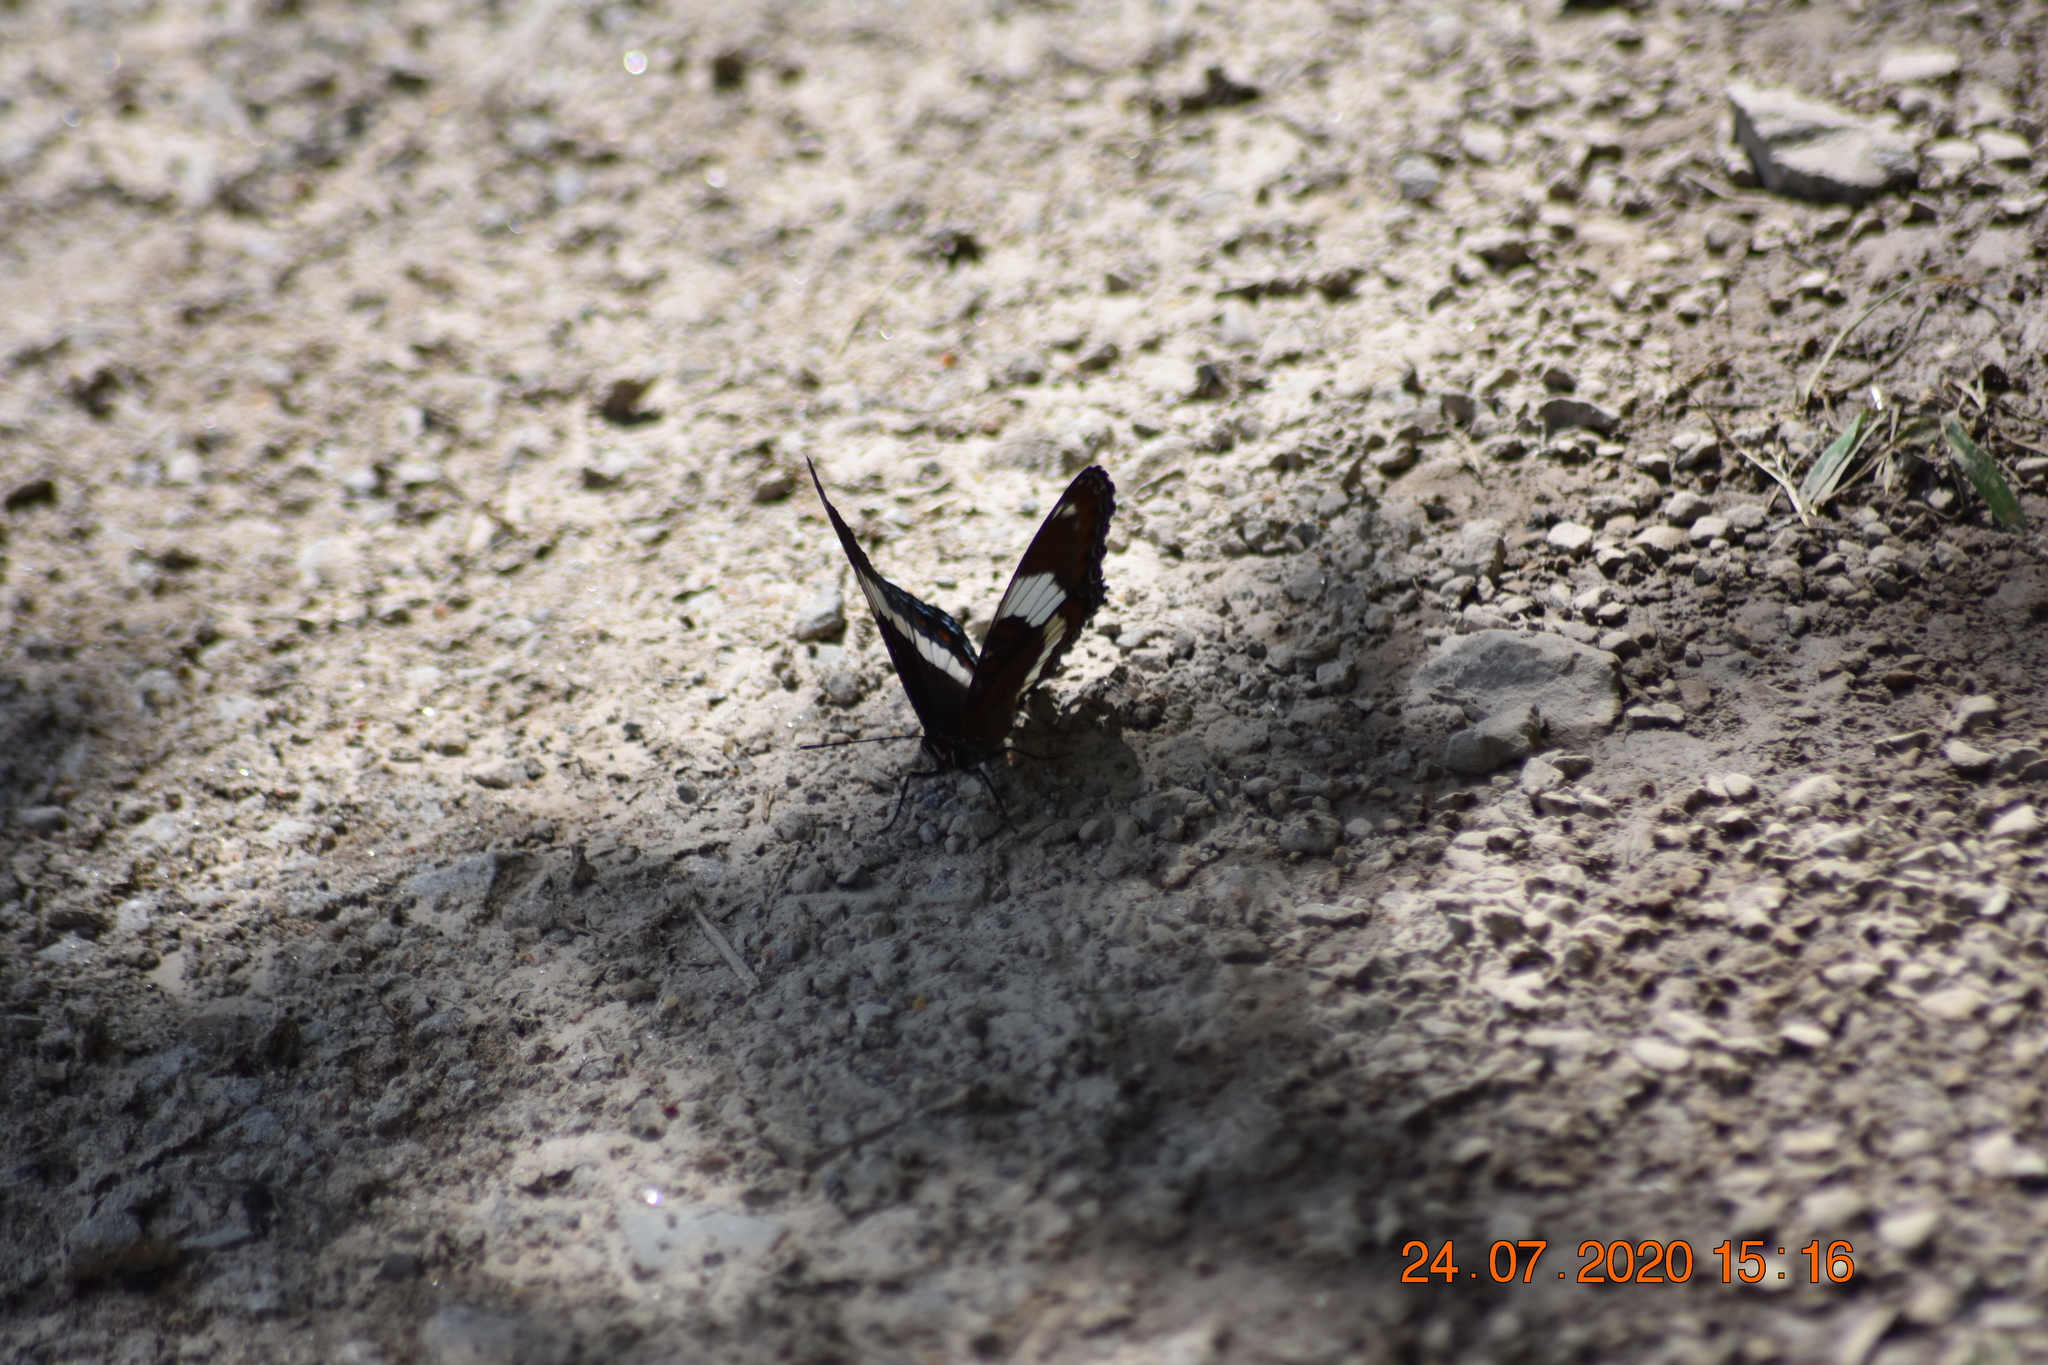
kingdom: Animalia
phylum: Arthropoda
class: Insecta
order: Lepidoptera
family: Nymphalidae
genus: Limenitis
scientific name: Limenitis arthemis
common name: Red-spotted admiral
